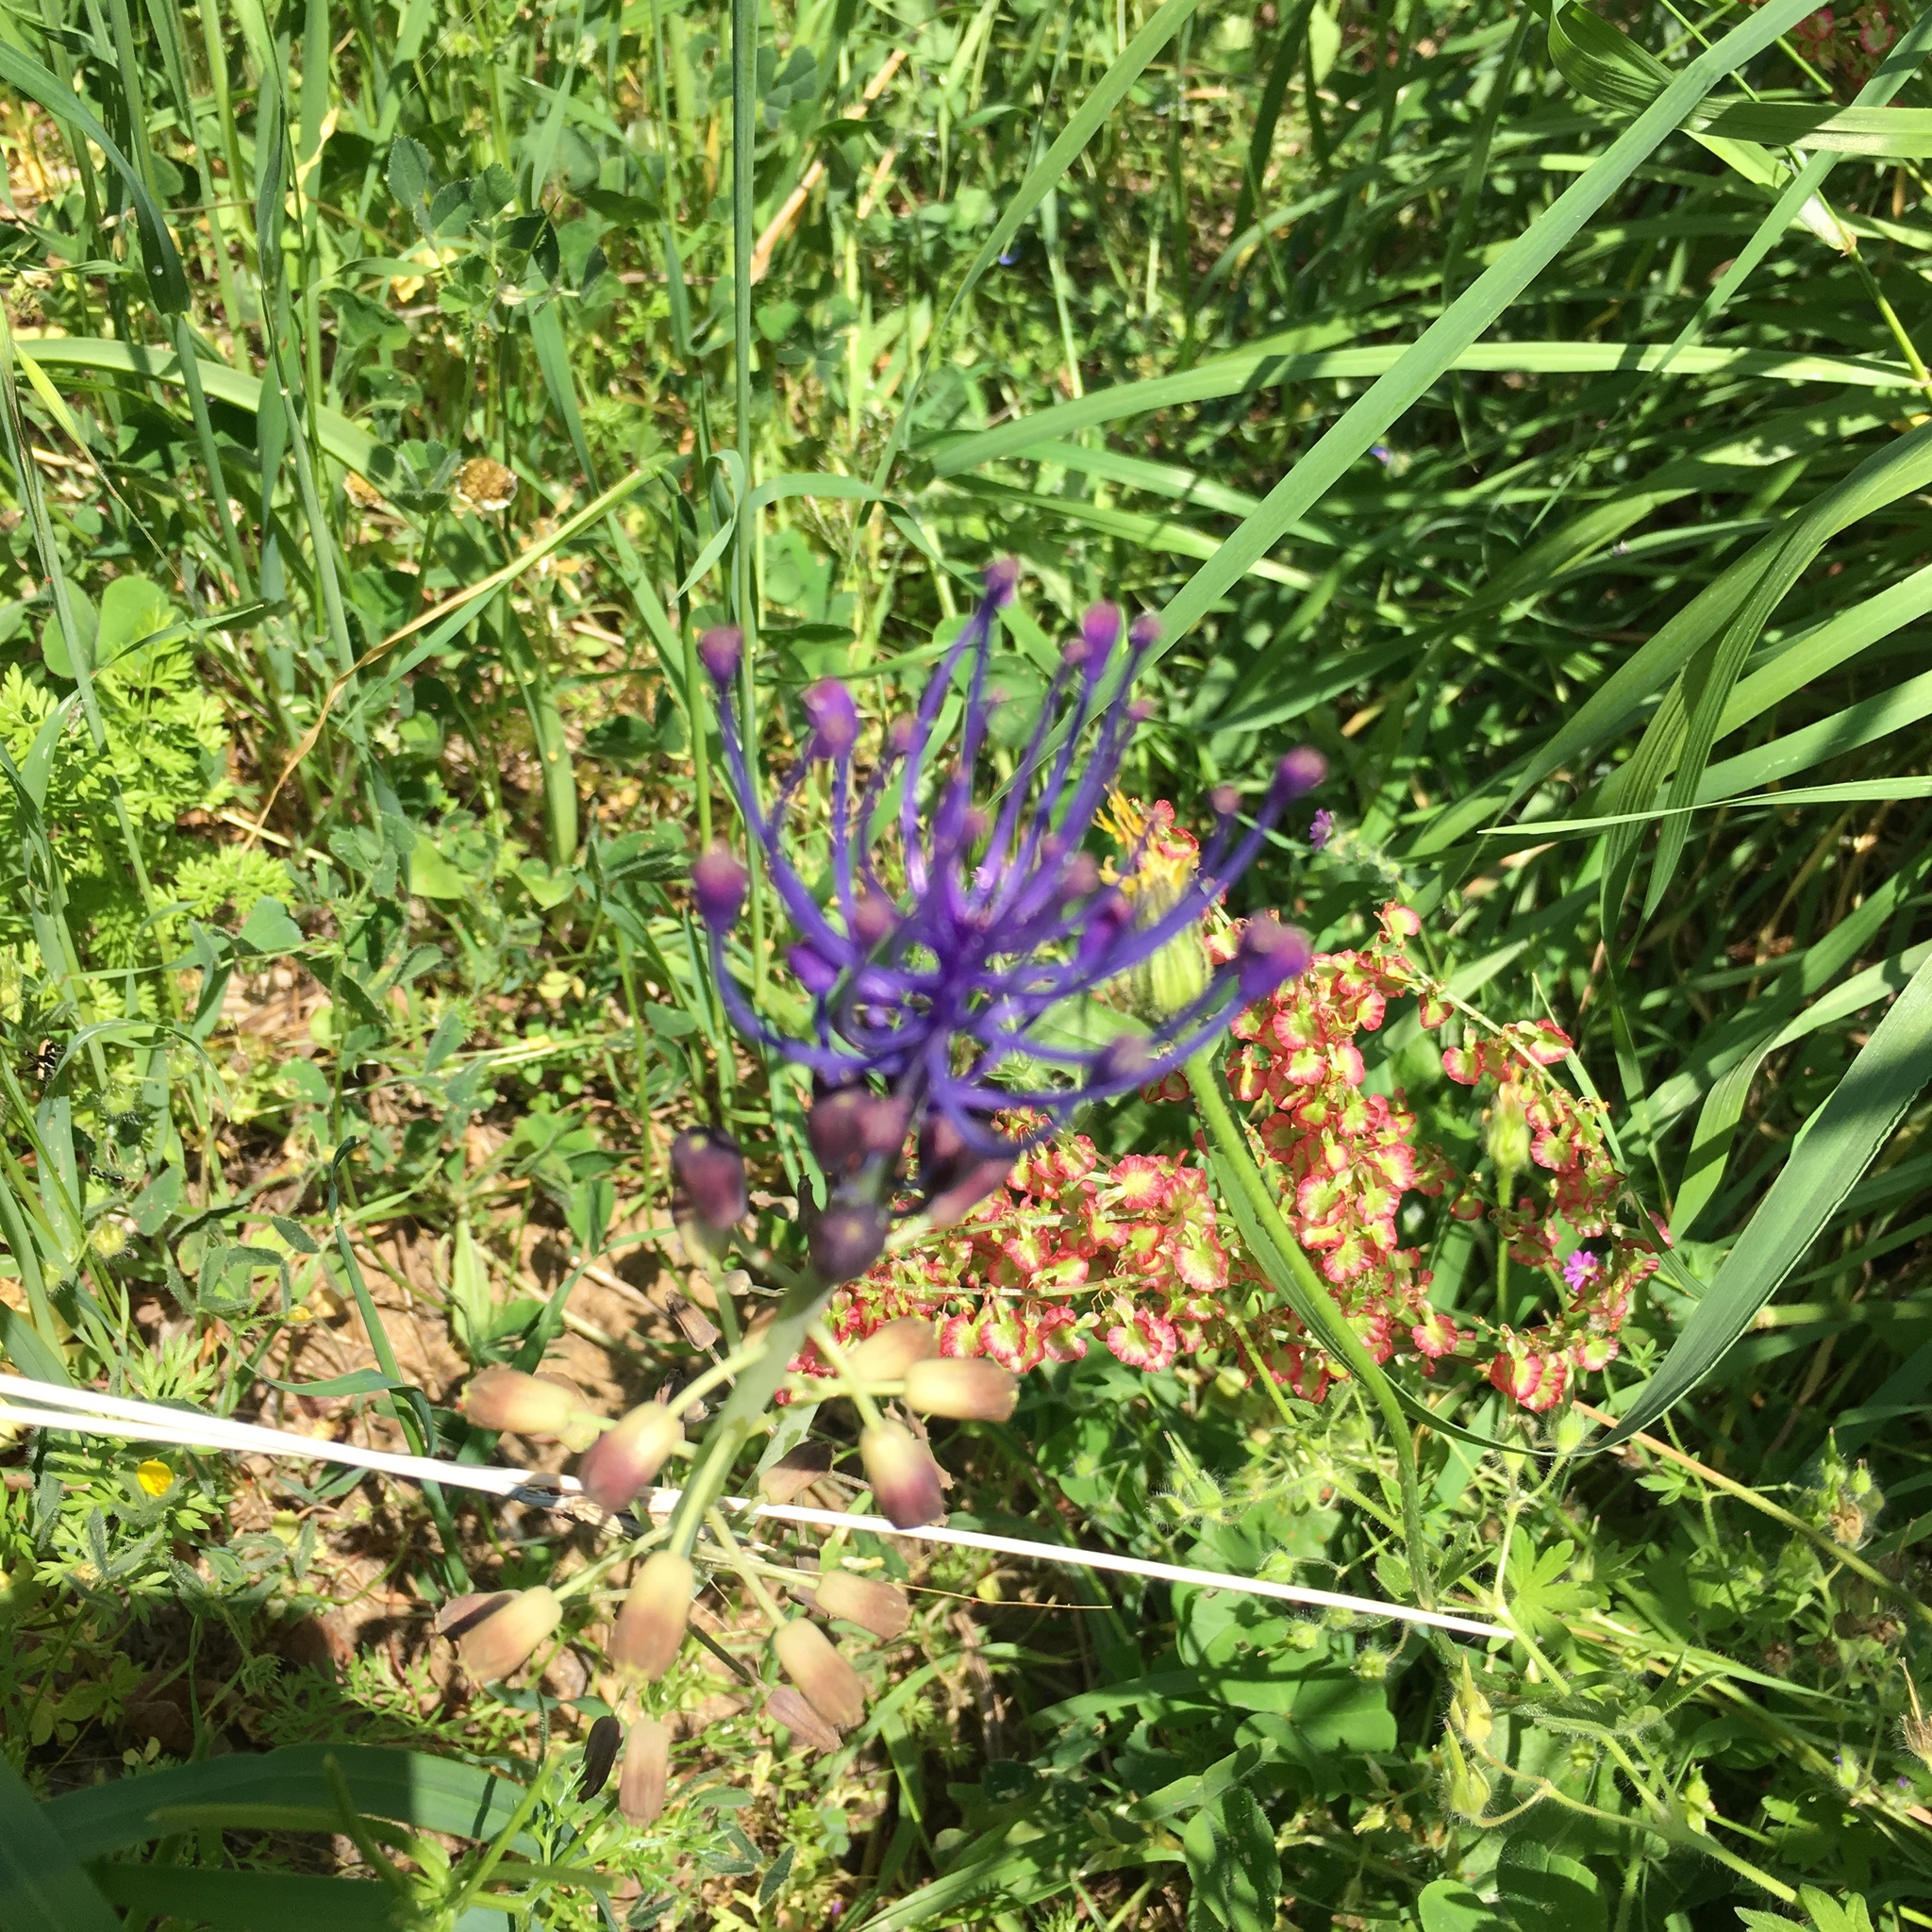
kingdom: Plantae
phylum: Tracheophyta
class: Liliopsida
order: Asparagales
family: Asparagaceae
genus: Muscari
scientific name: Muscari comosum
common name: Tassel hyacinth
